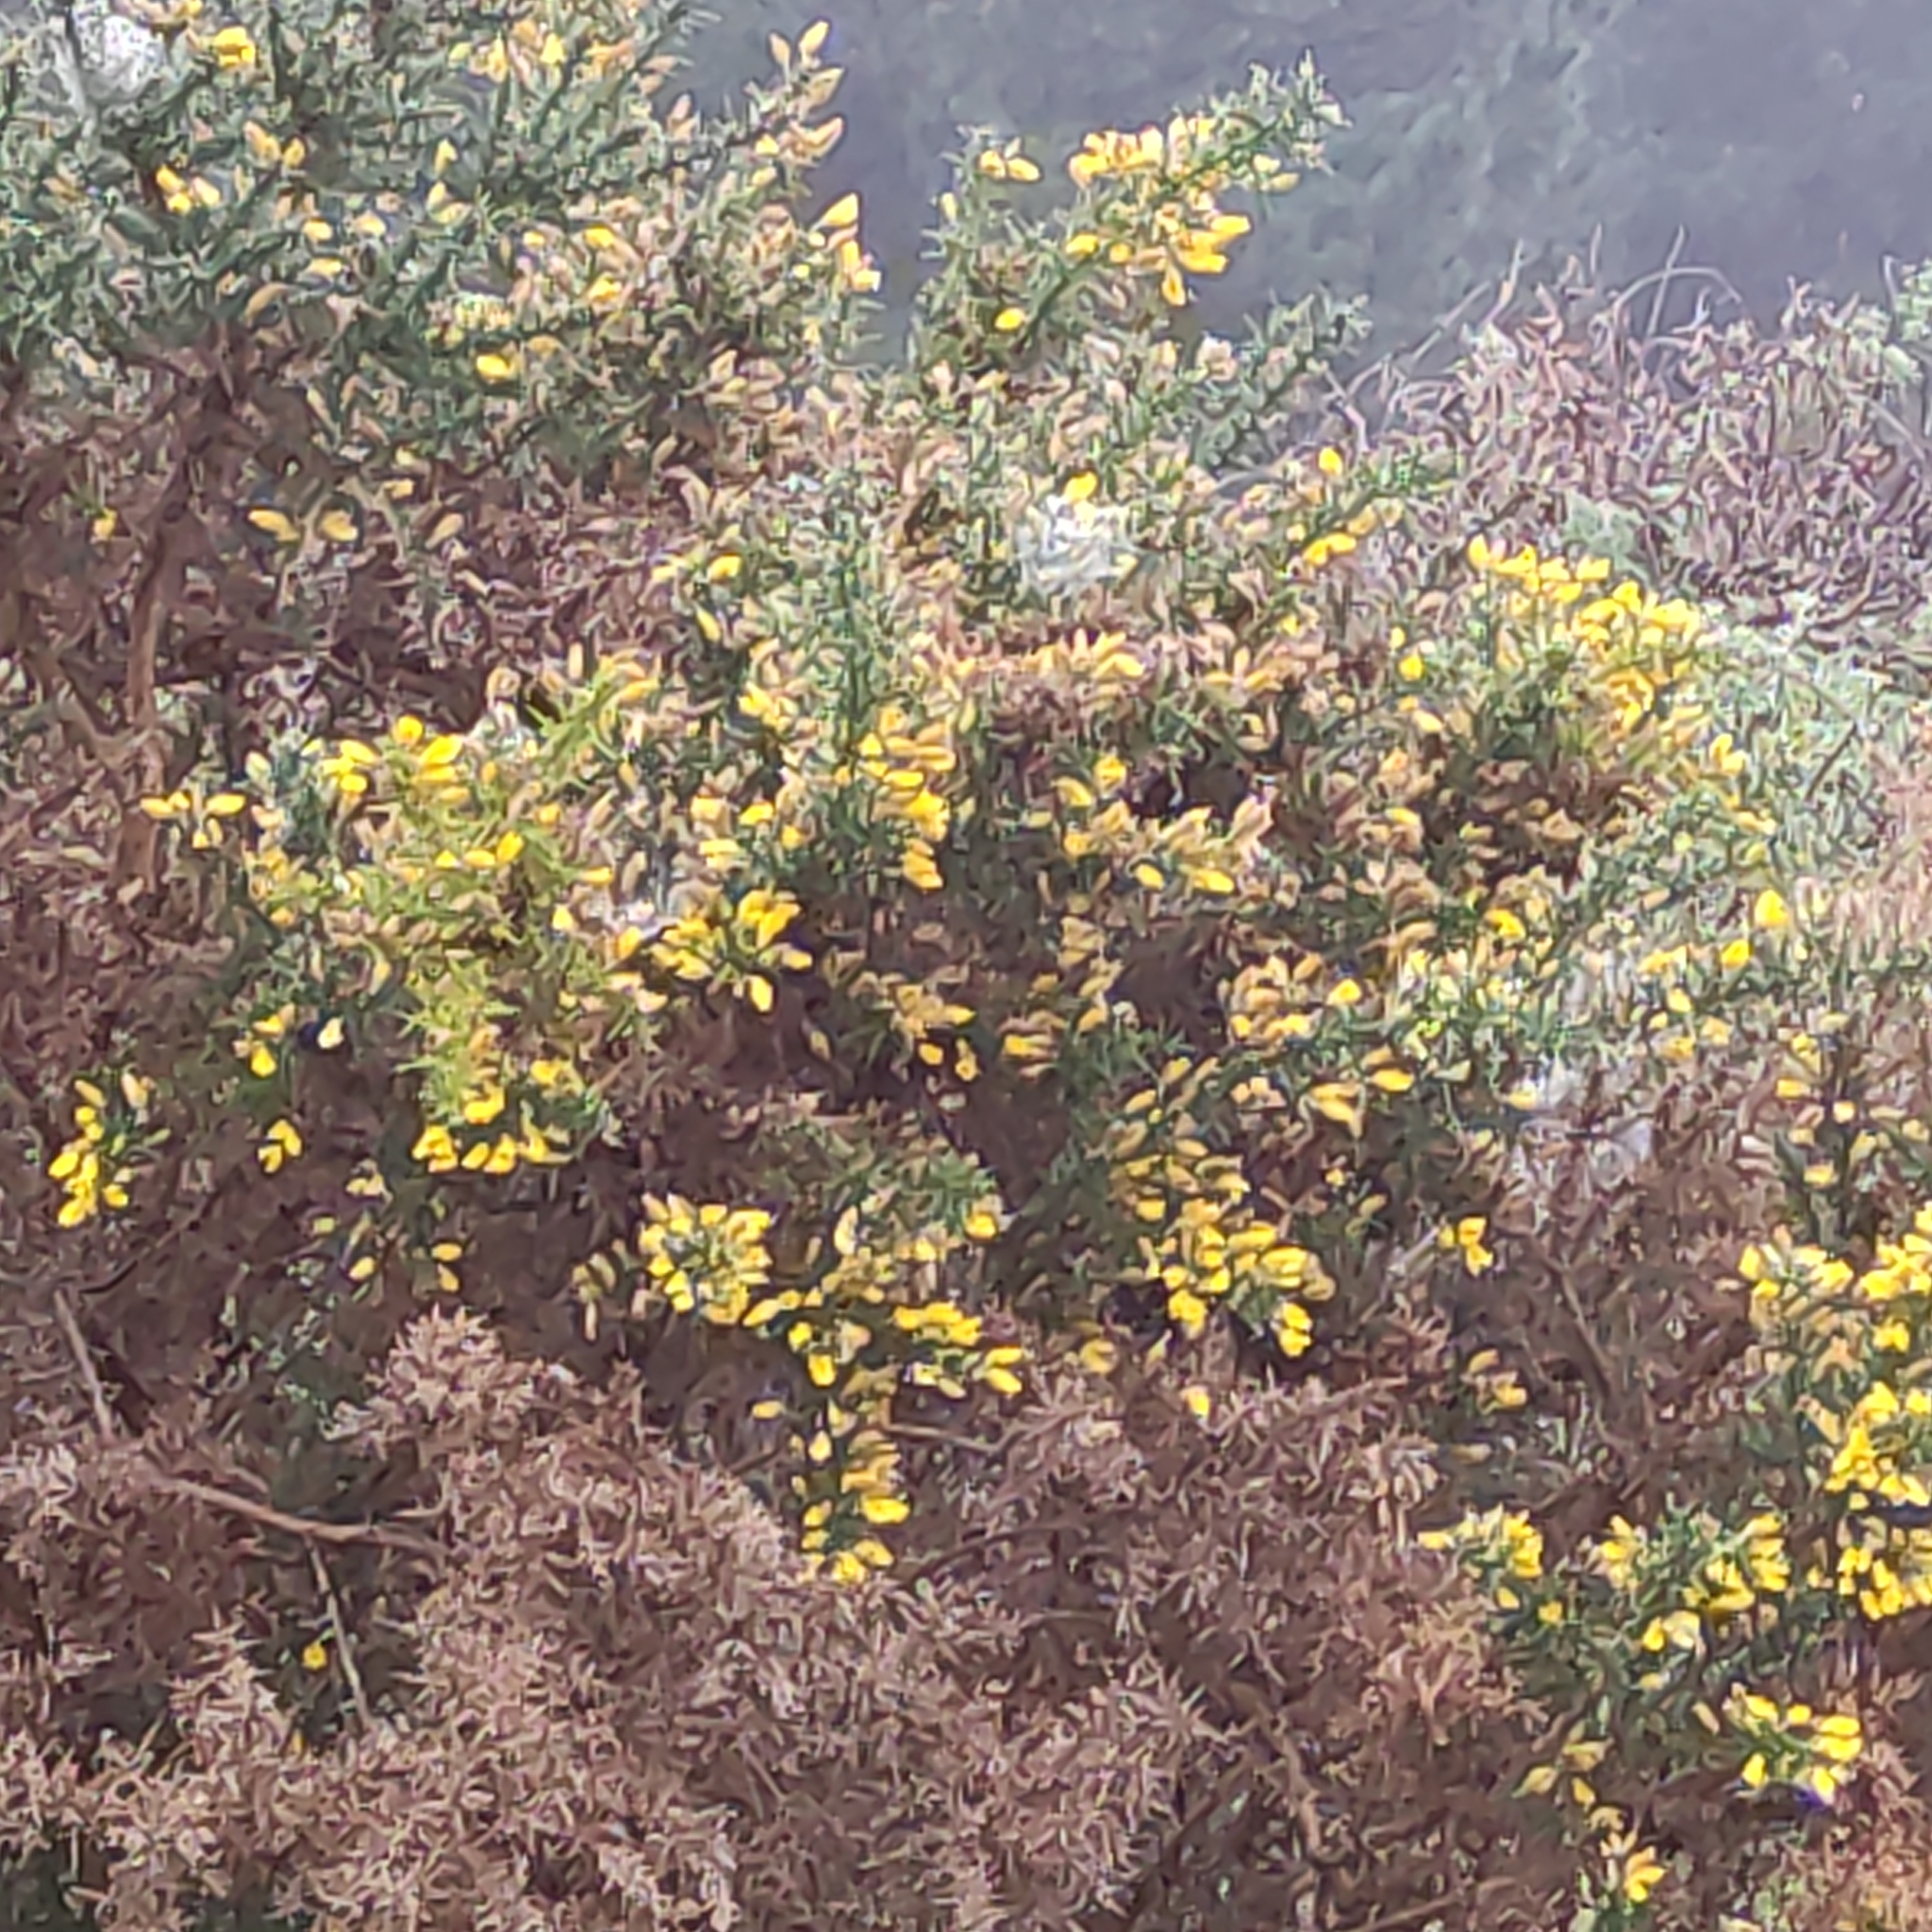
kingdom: Plantae
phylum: Tracheophyta
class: Magnoliopsida
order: Fabales
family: Fabaceae
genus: Ulex
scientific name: Ulex europaeus
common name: Common gorse
